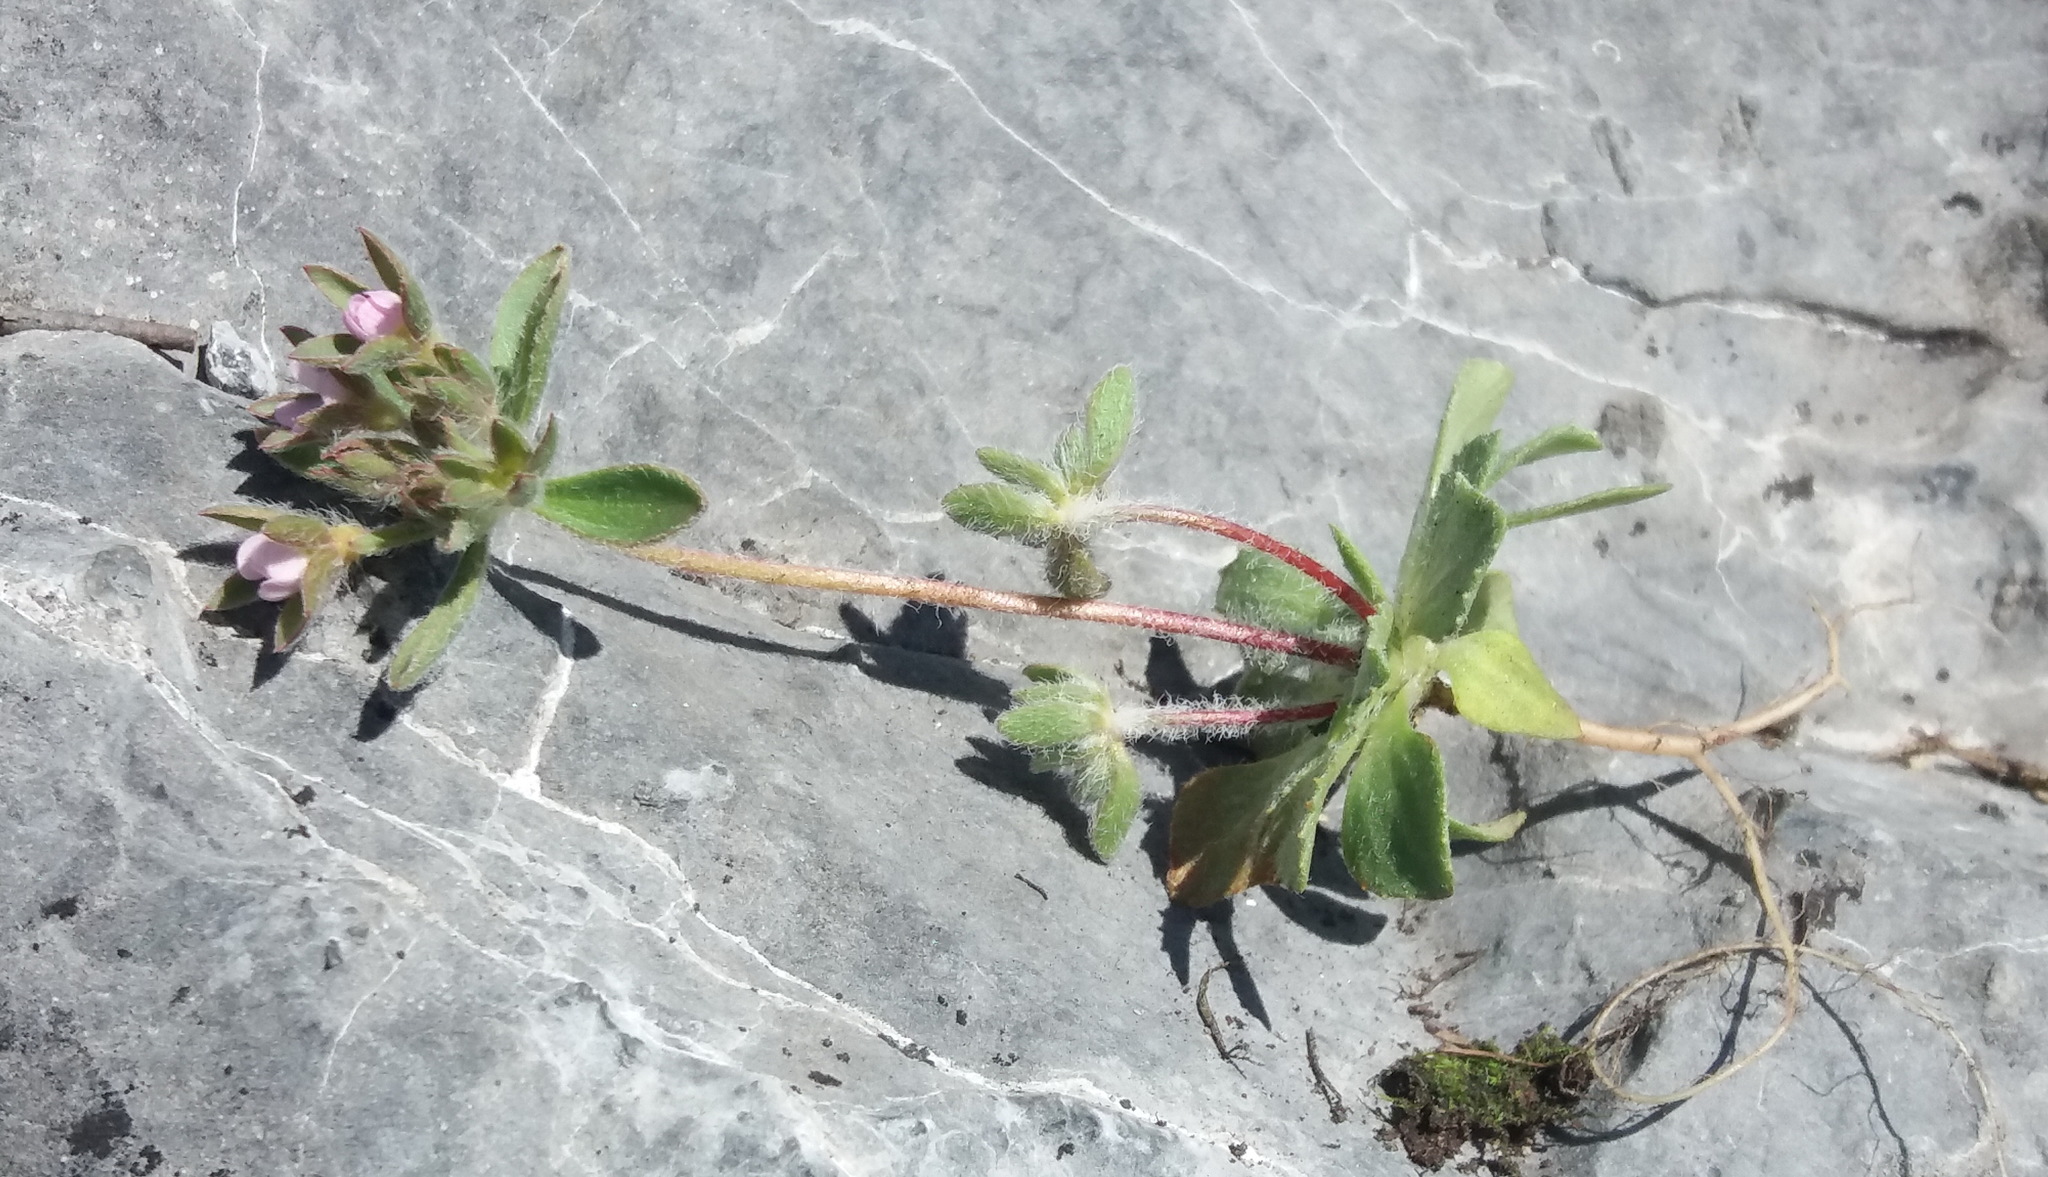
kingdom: Plantae
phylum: Tracheophyta
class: Magnoliopsida
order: Ericales
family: Primulaceae
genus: Androsace
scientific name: Androsace maxima
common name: Annual androsace
